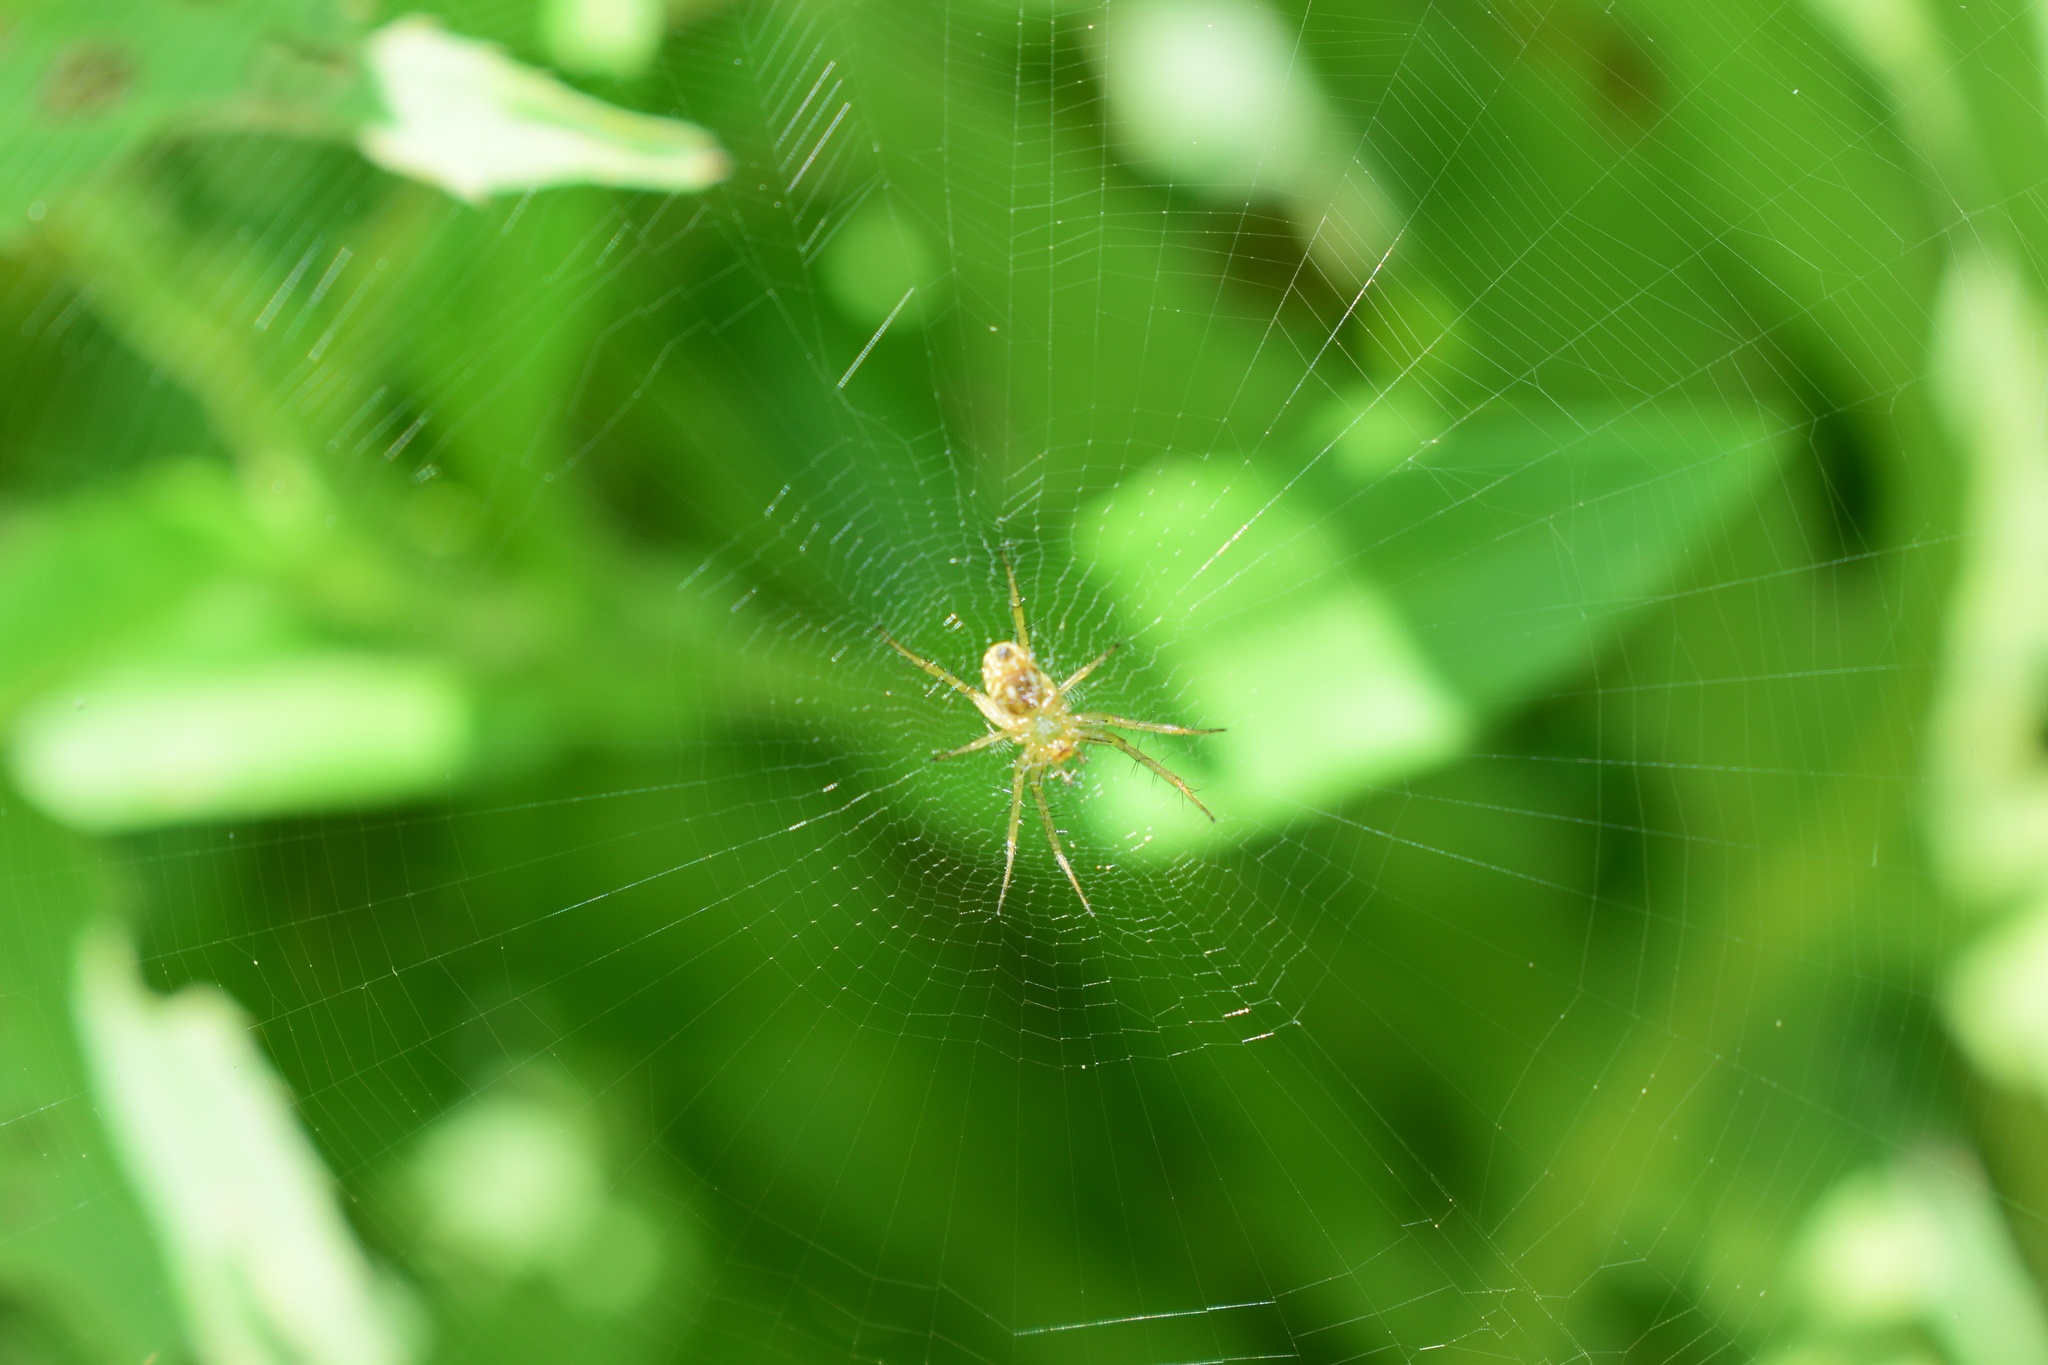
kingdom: Animalia
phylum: Arthropoda
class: Arachnida
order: Araneae
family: Araneidae
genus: Mangora
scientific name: Mangora gibberosa
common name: Lined orbweaver
